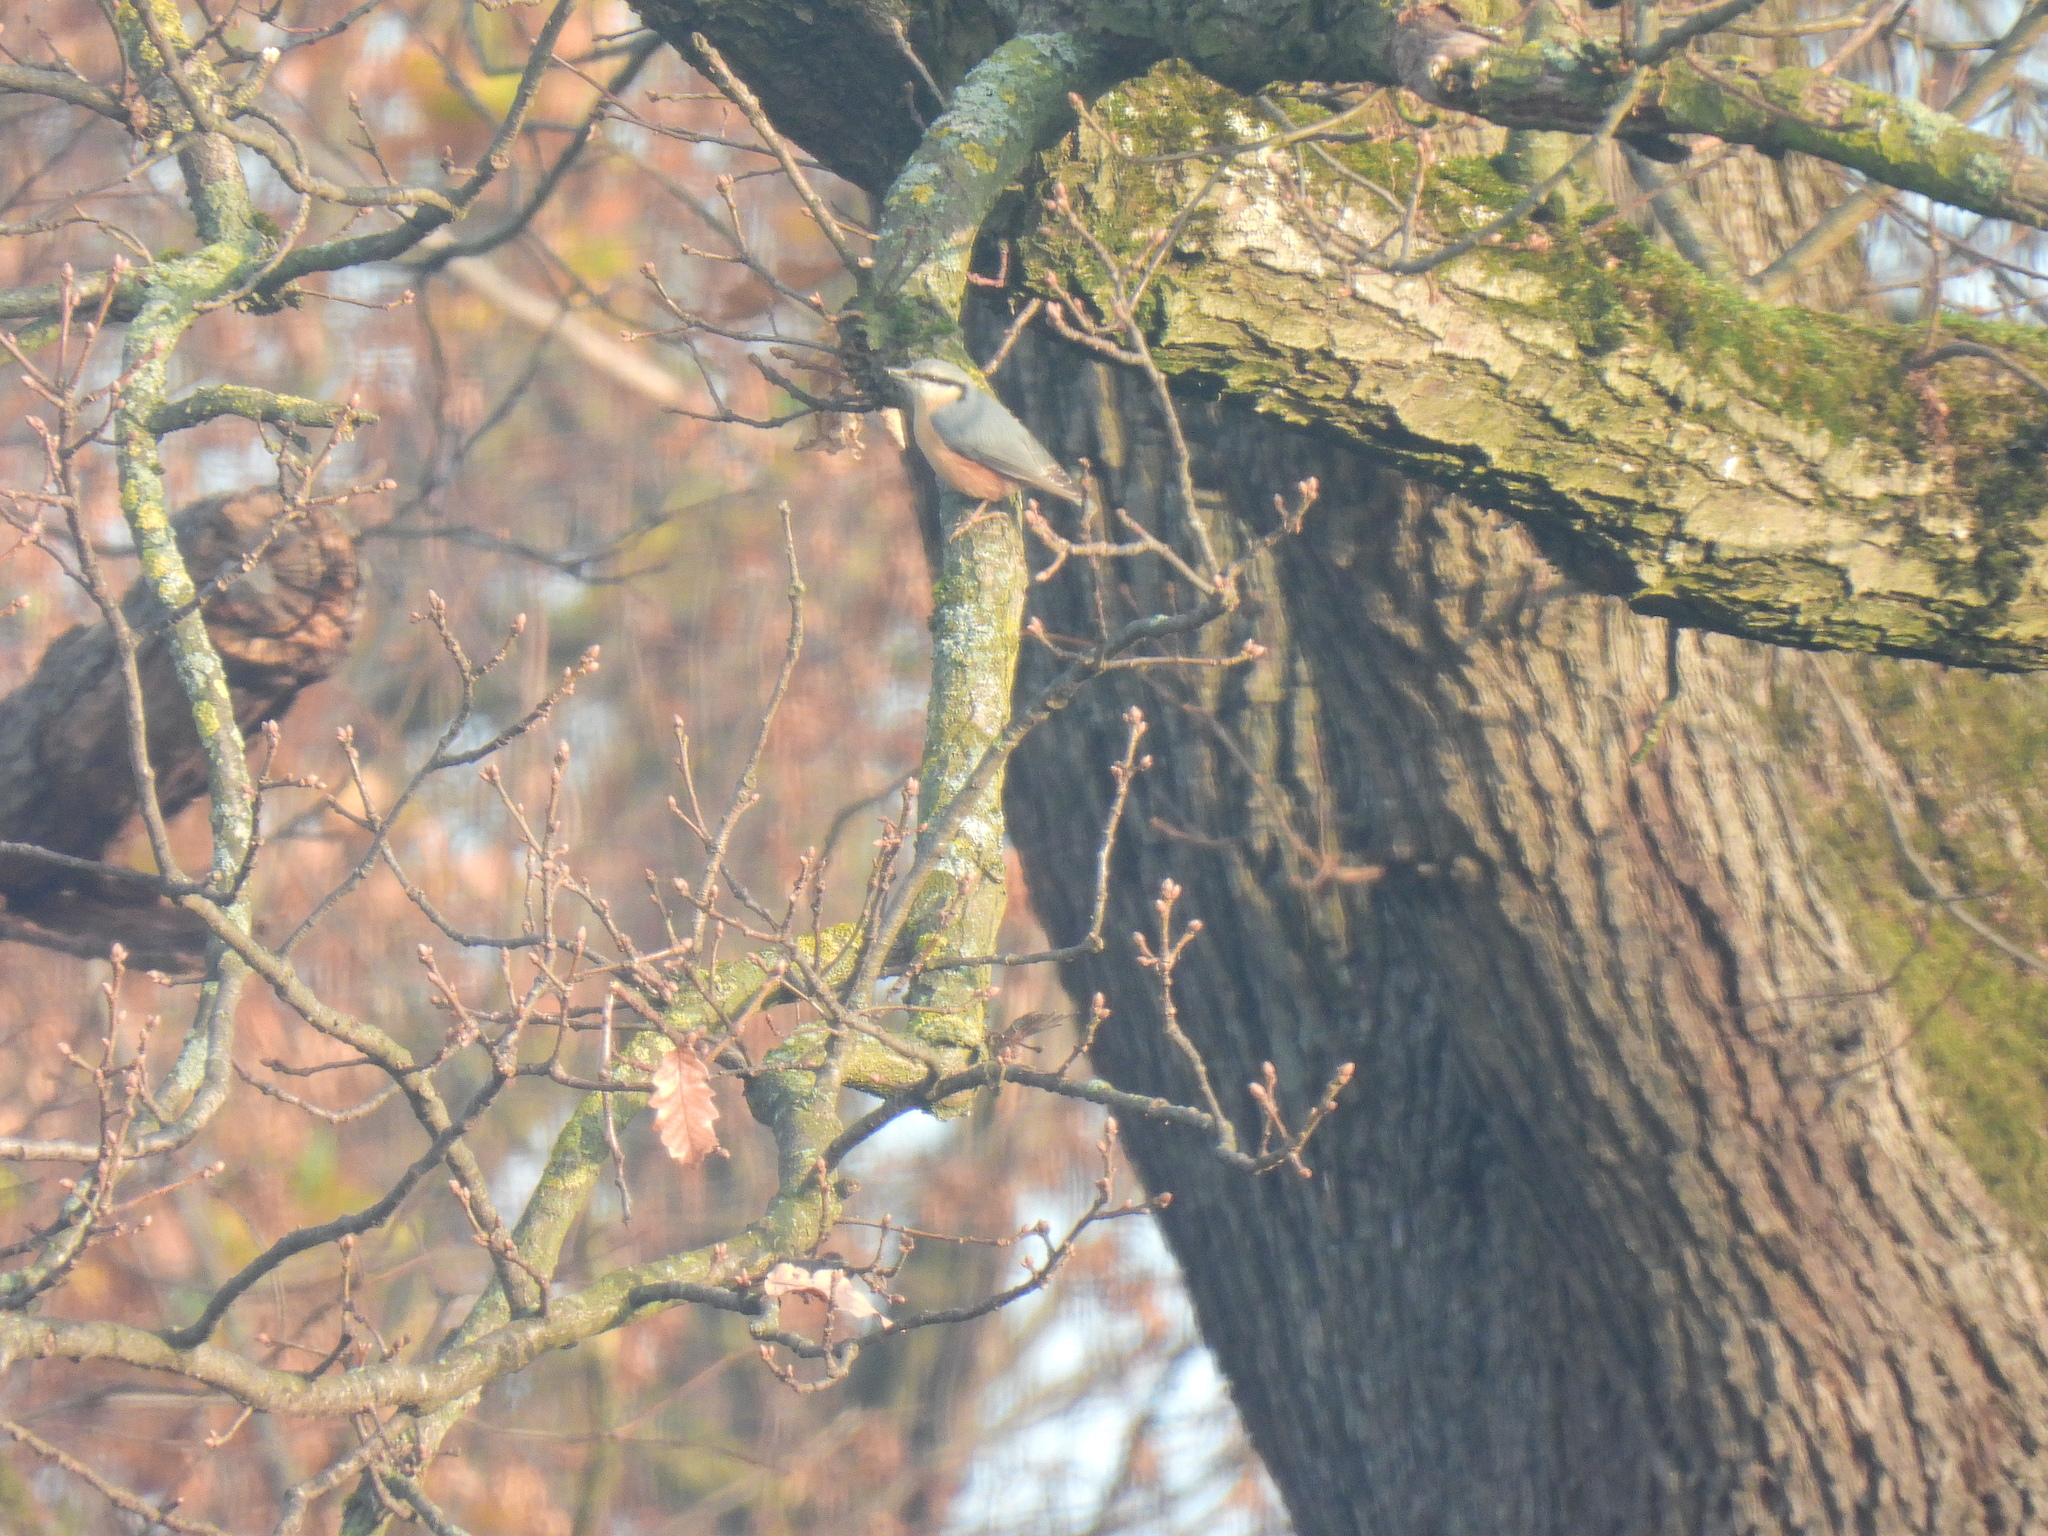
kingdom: Animalia
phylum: Chordata
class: Aves
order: Passeriformes
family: Sittidae
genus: Sitta
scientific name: Sitta europaea
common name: Eurasian nuthatch
